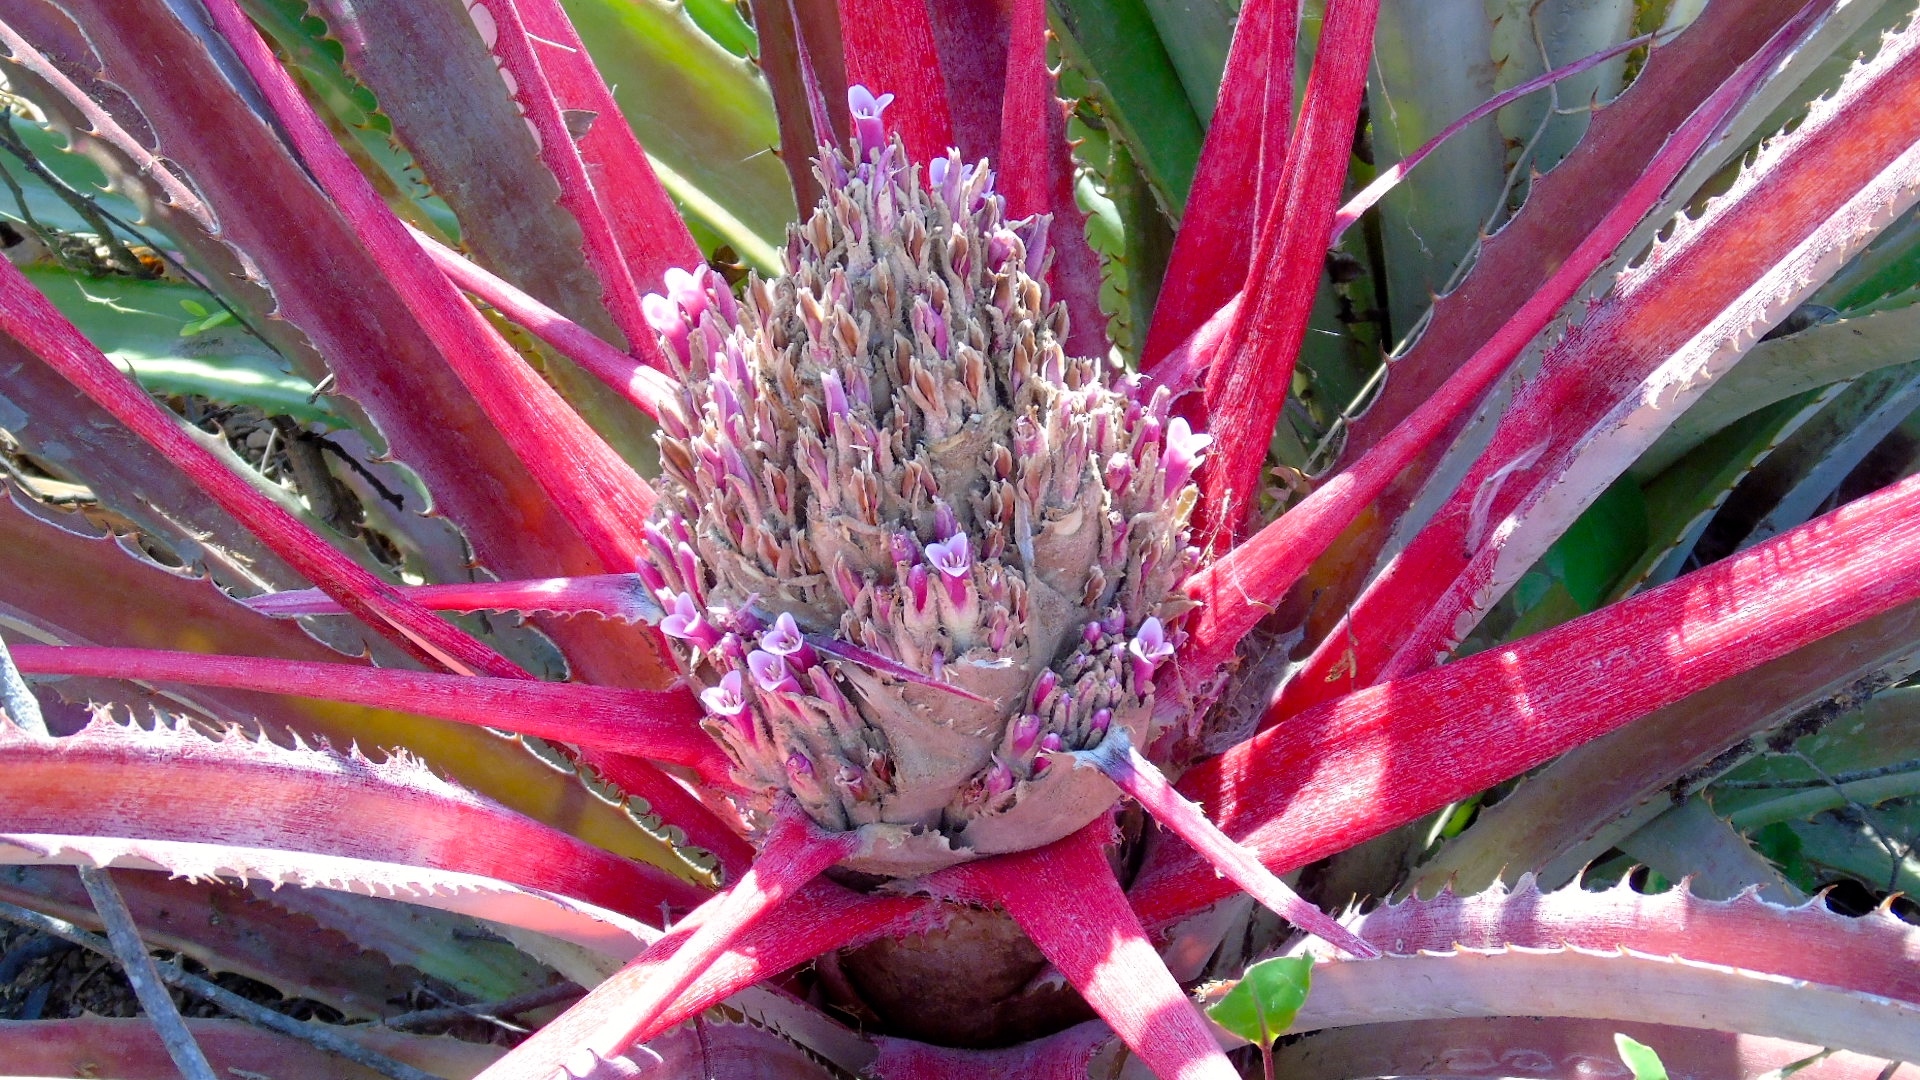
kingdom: Plantae
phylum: Tracheophyta
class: Liliopsida
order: Poales
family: Bromeliaceae
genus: Bromelia
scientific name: Bromelia hemisphaerica
